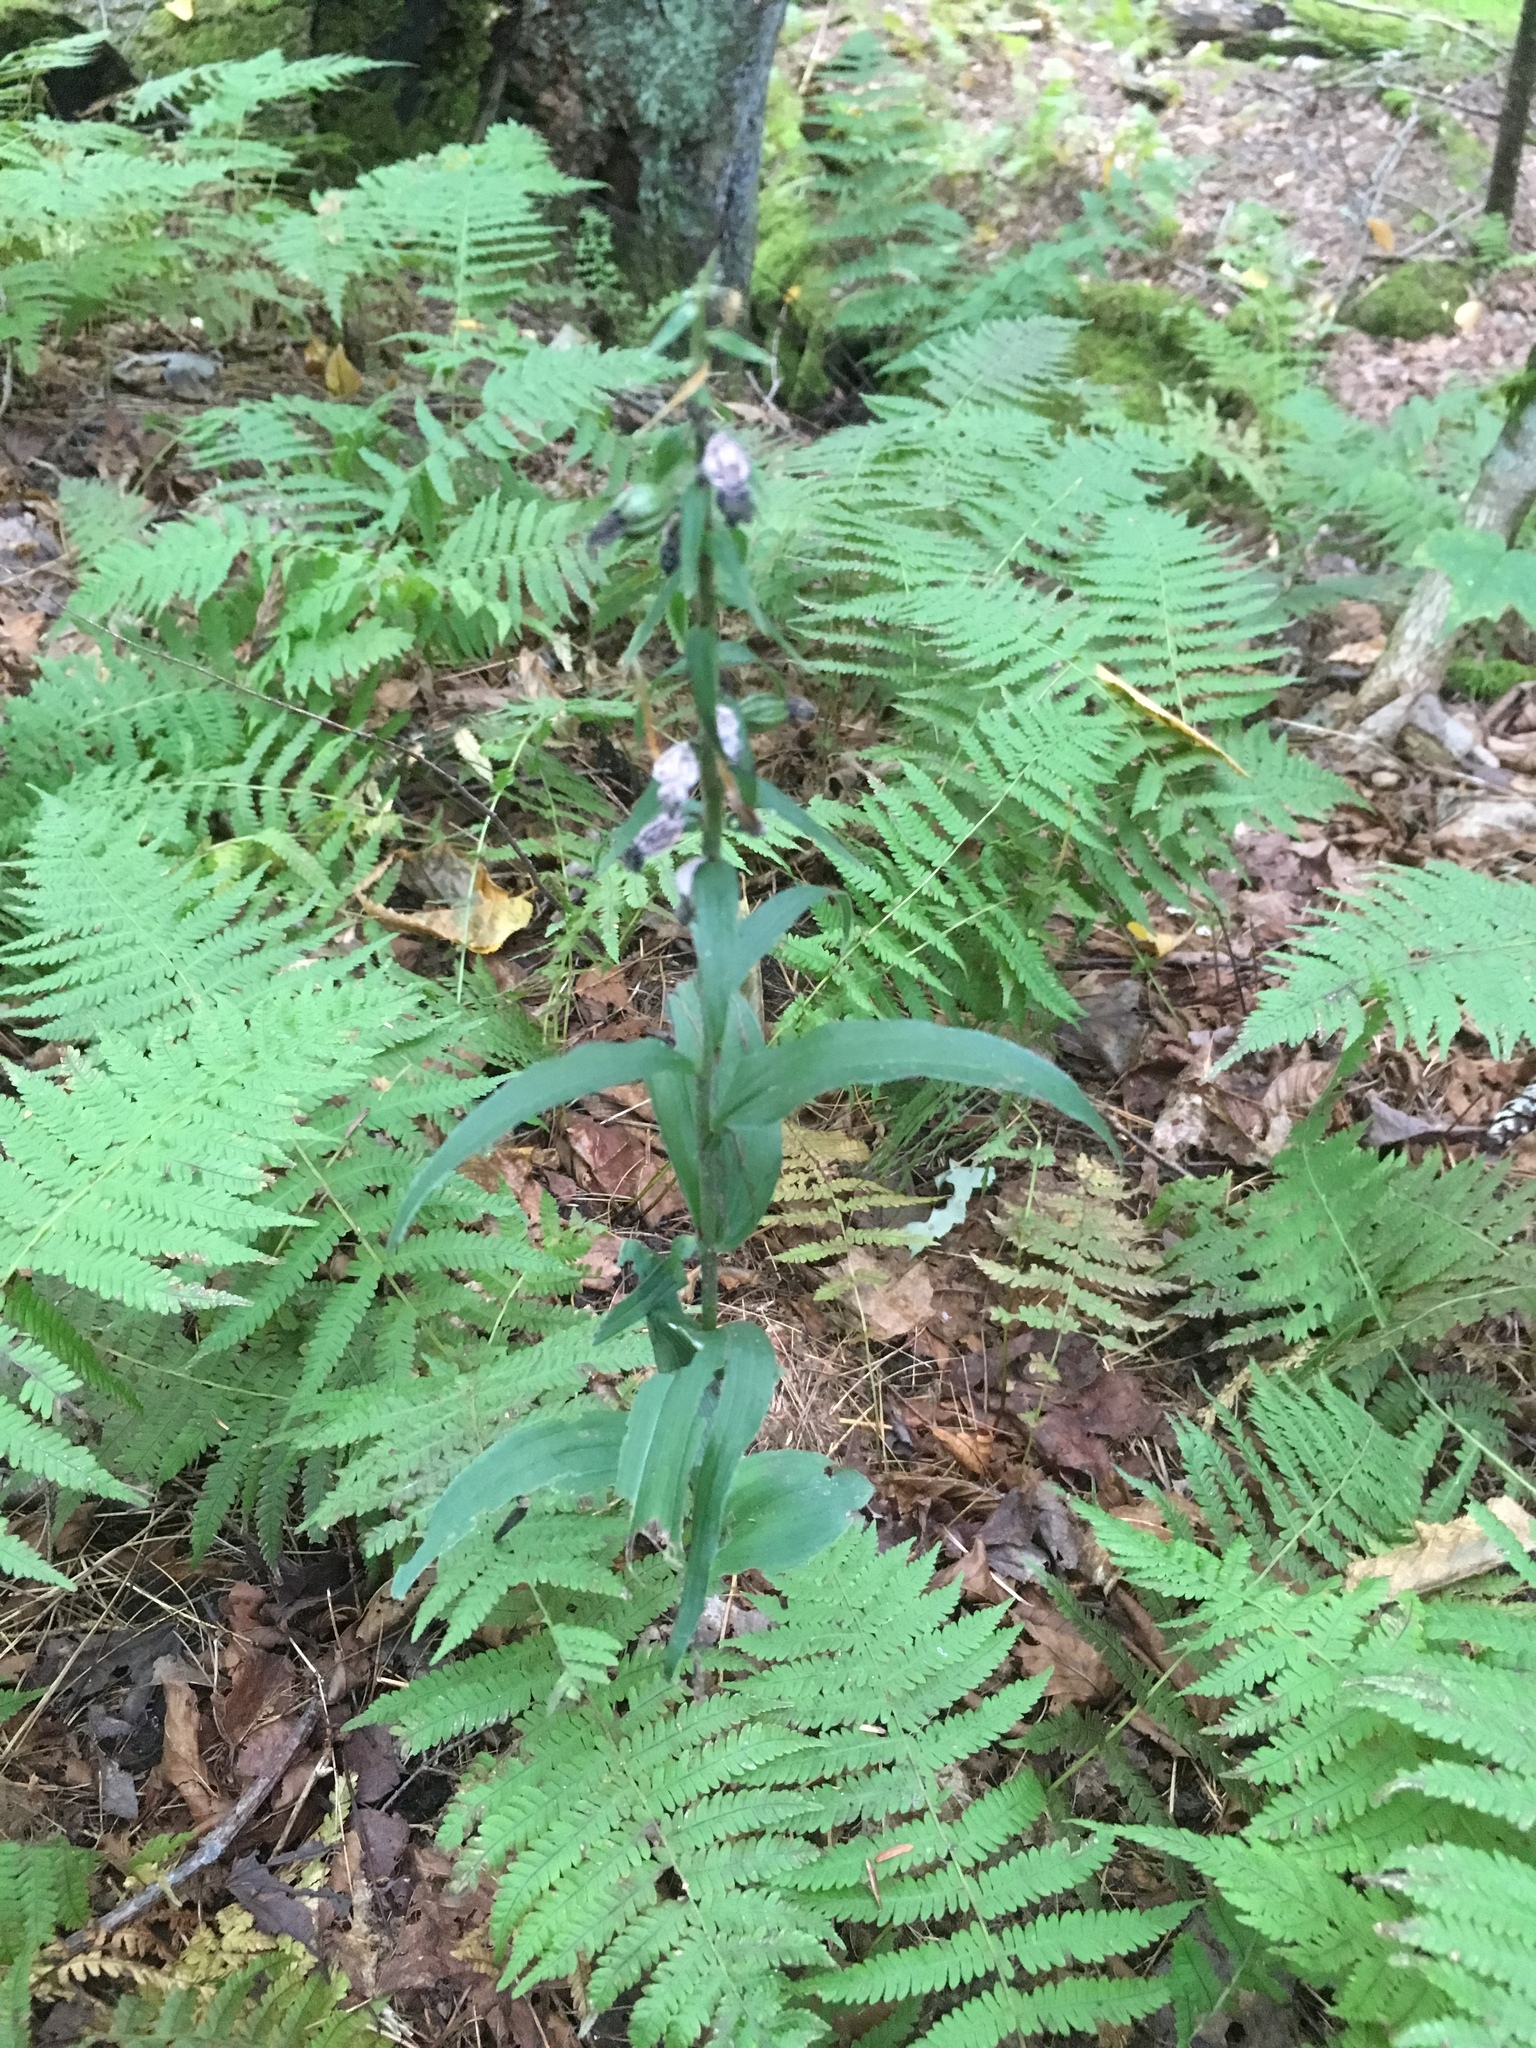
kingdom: Plantae
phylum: Tracheophyta
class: Liliopsida
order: Asparagales
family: Orchidaceae
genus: Epipactis
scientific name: Epipactis helleborine
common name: Broad-leaved helleborine
